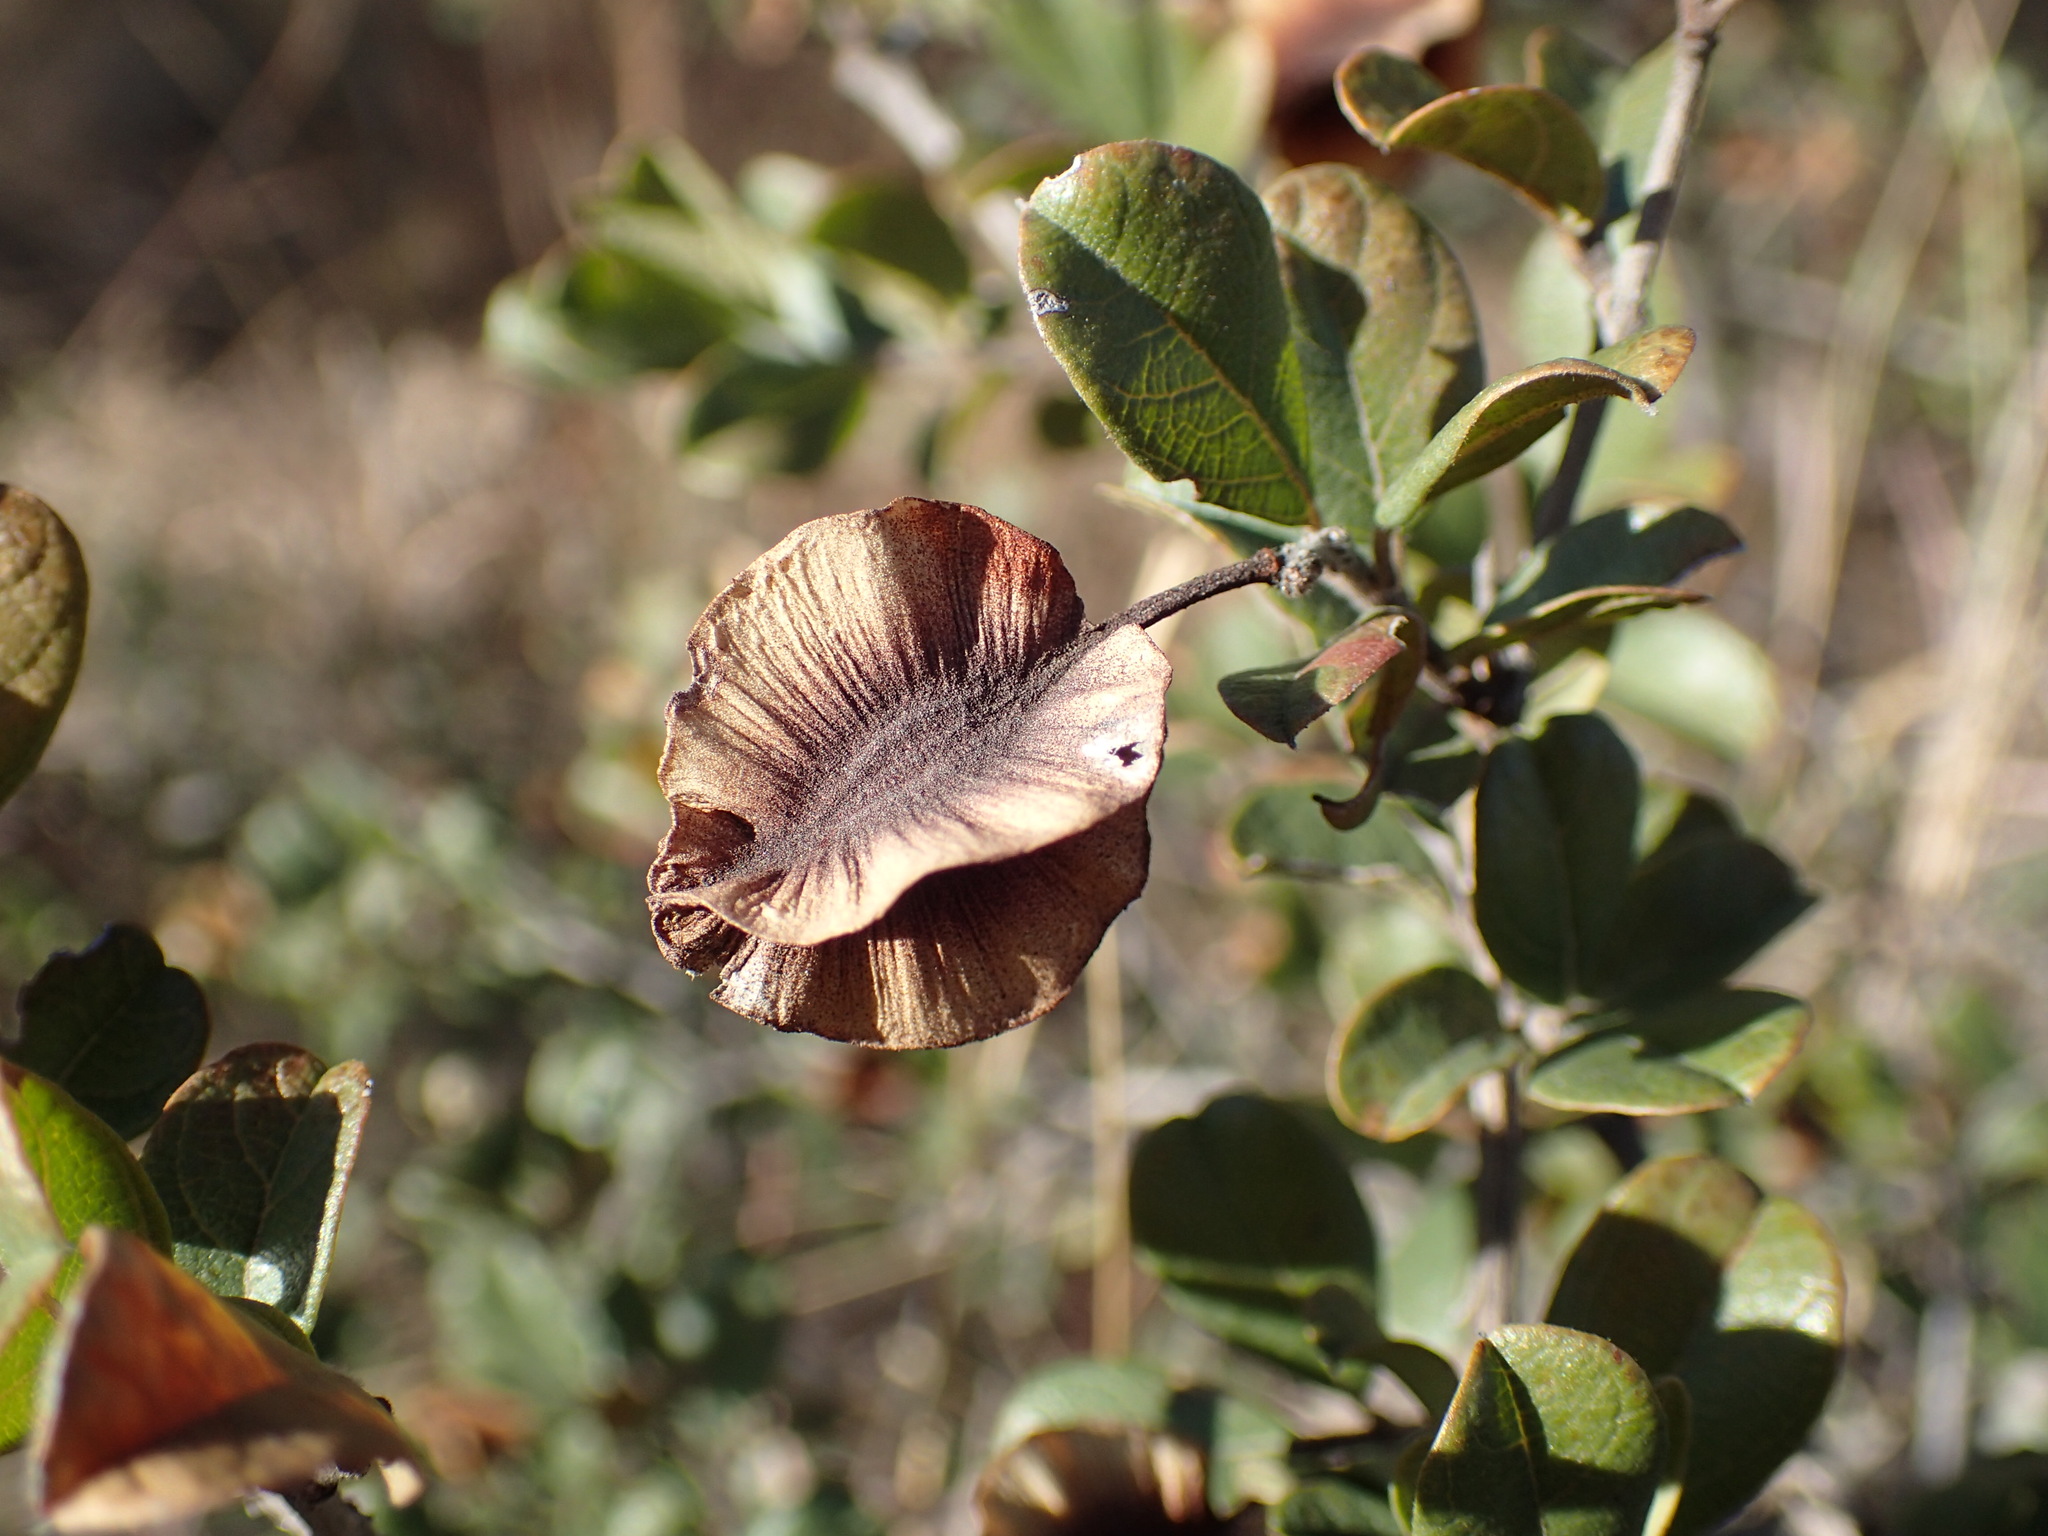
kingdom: Plantae
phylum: Tracheophyta
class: Magnoliopsida
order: Myrtales
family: Combretaceae
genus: Combretum
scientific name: Combretum hereroense
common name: Russet bushwillow
